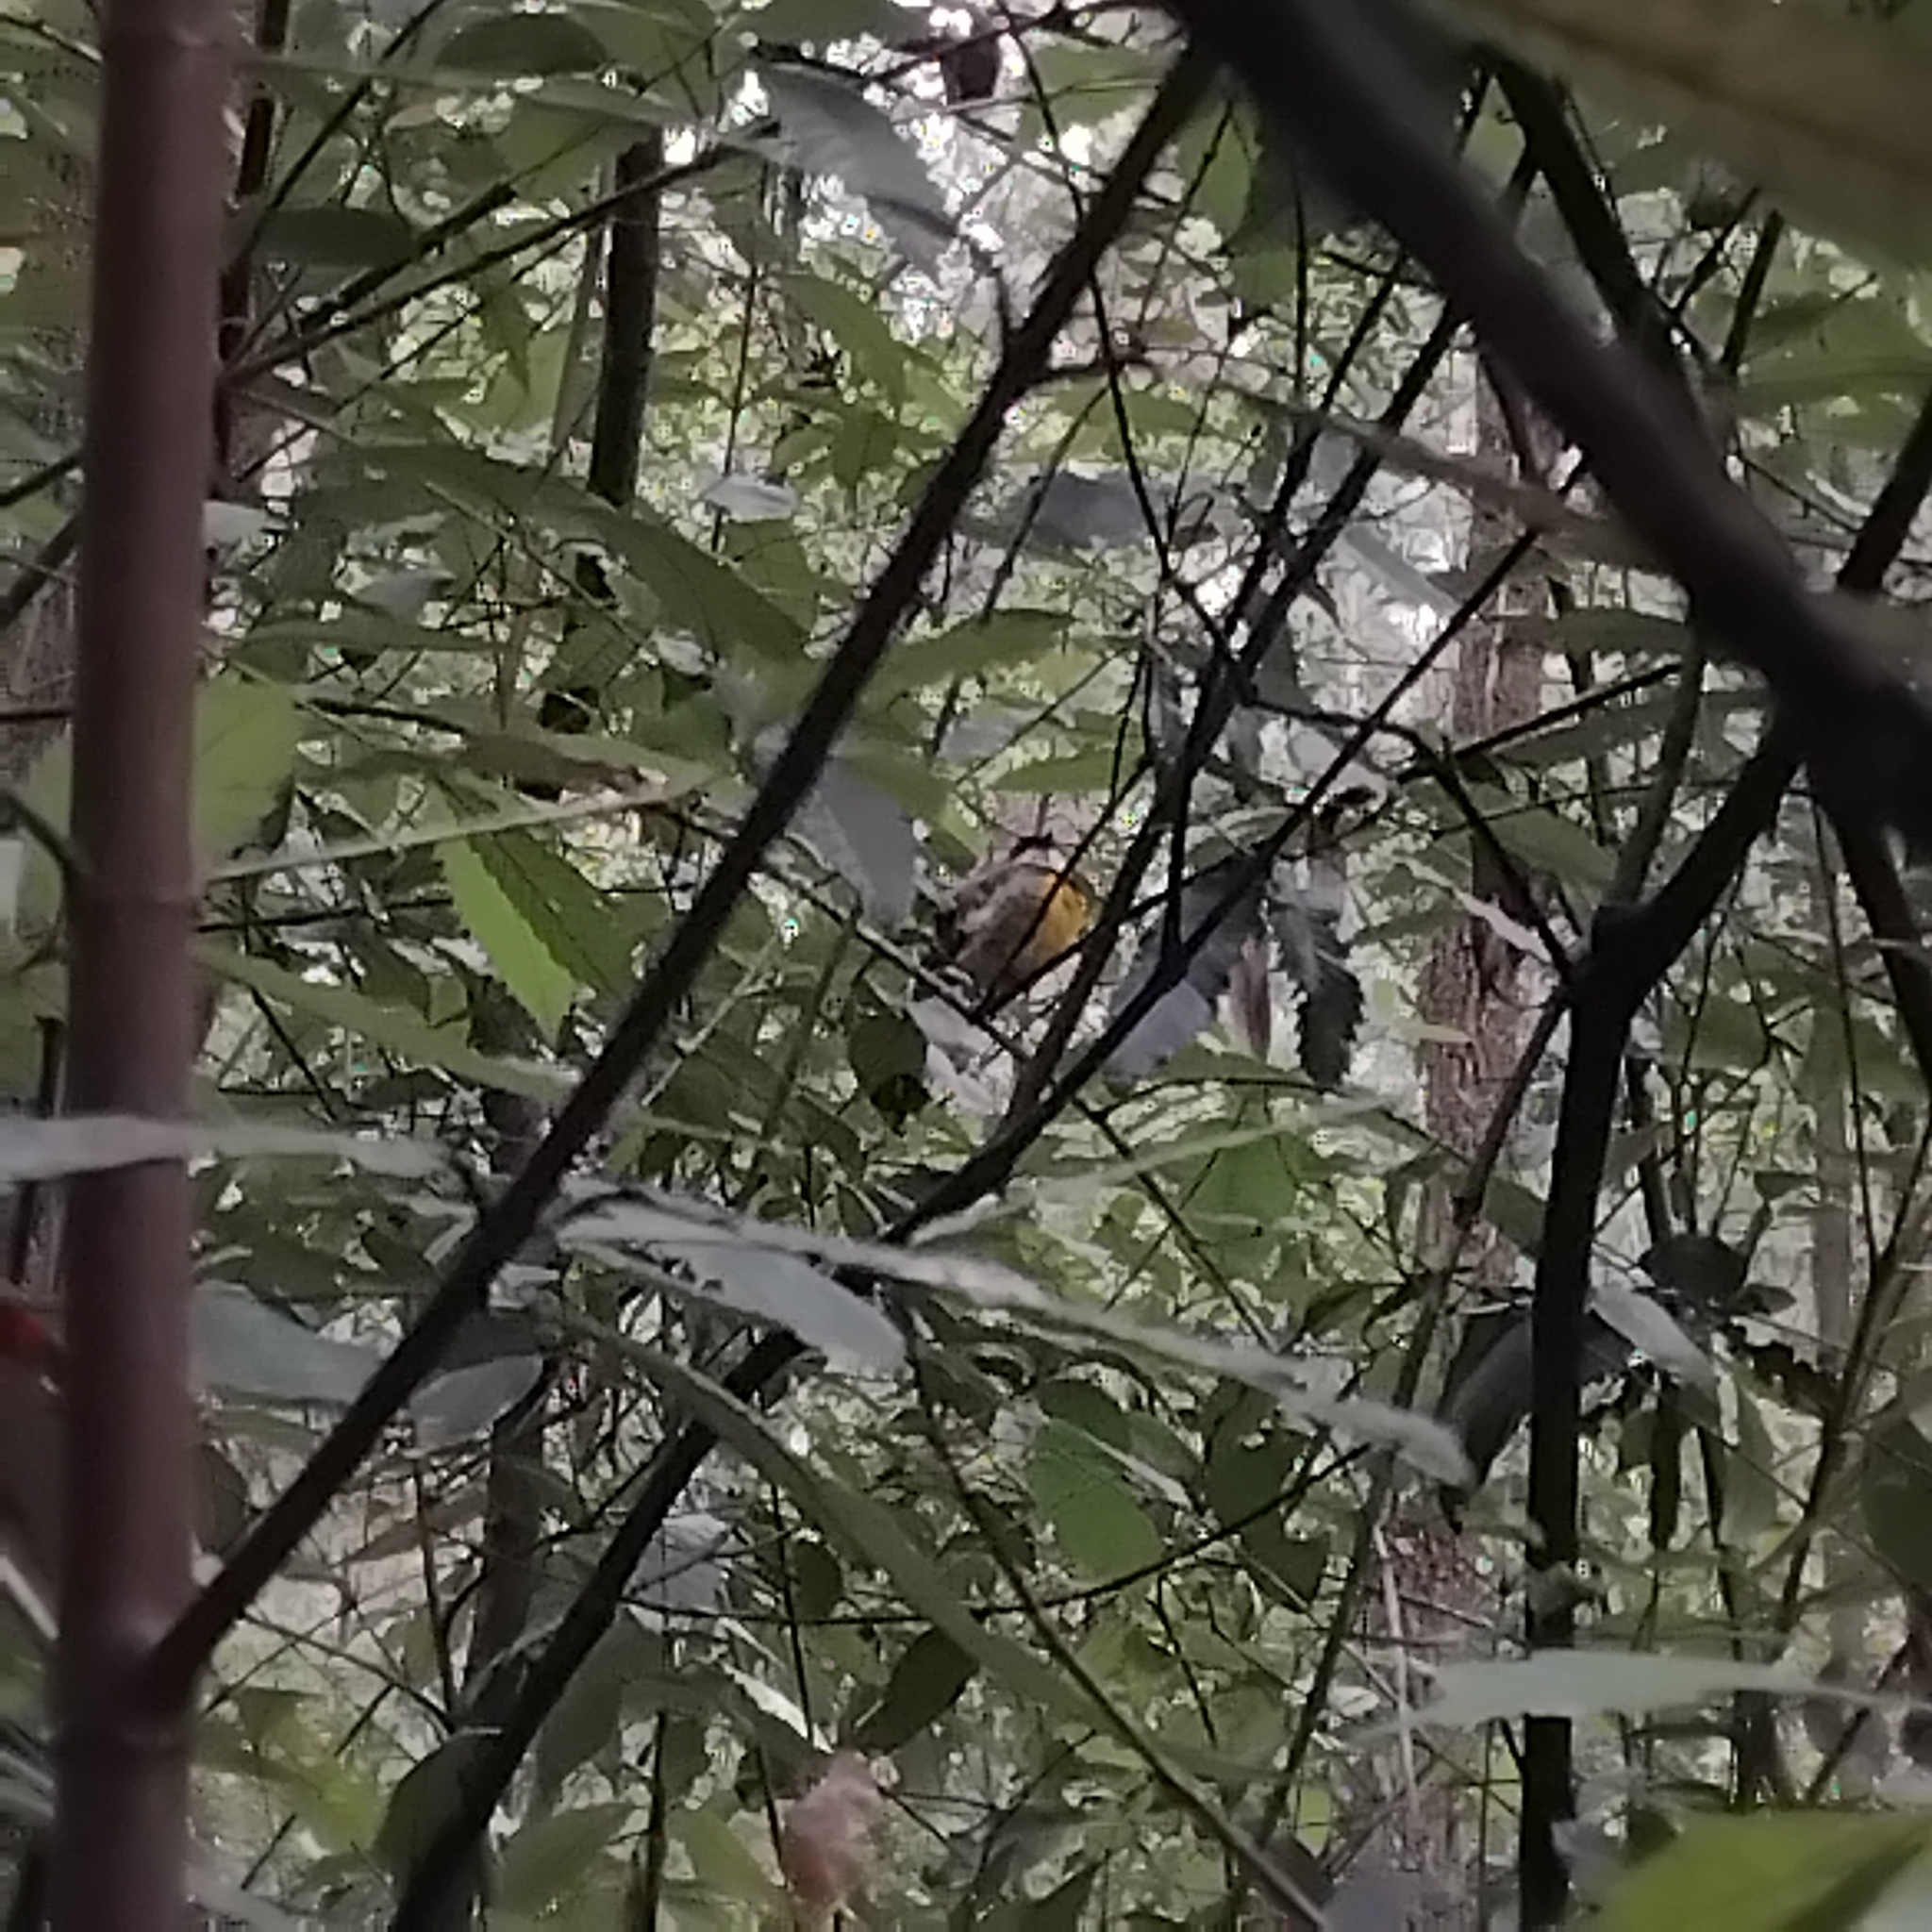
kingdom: Animalia
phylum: Chordata
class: Aves
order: Passeriformes
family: Pachycephalidae
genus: Pachycephala
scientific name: Pachycephala pectoralis
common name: Australian golden whistler
